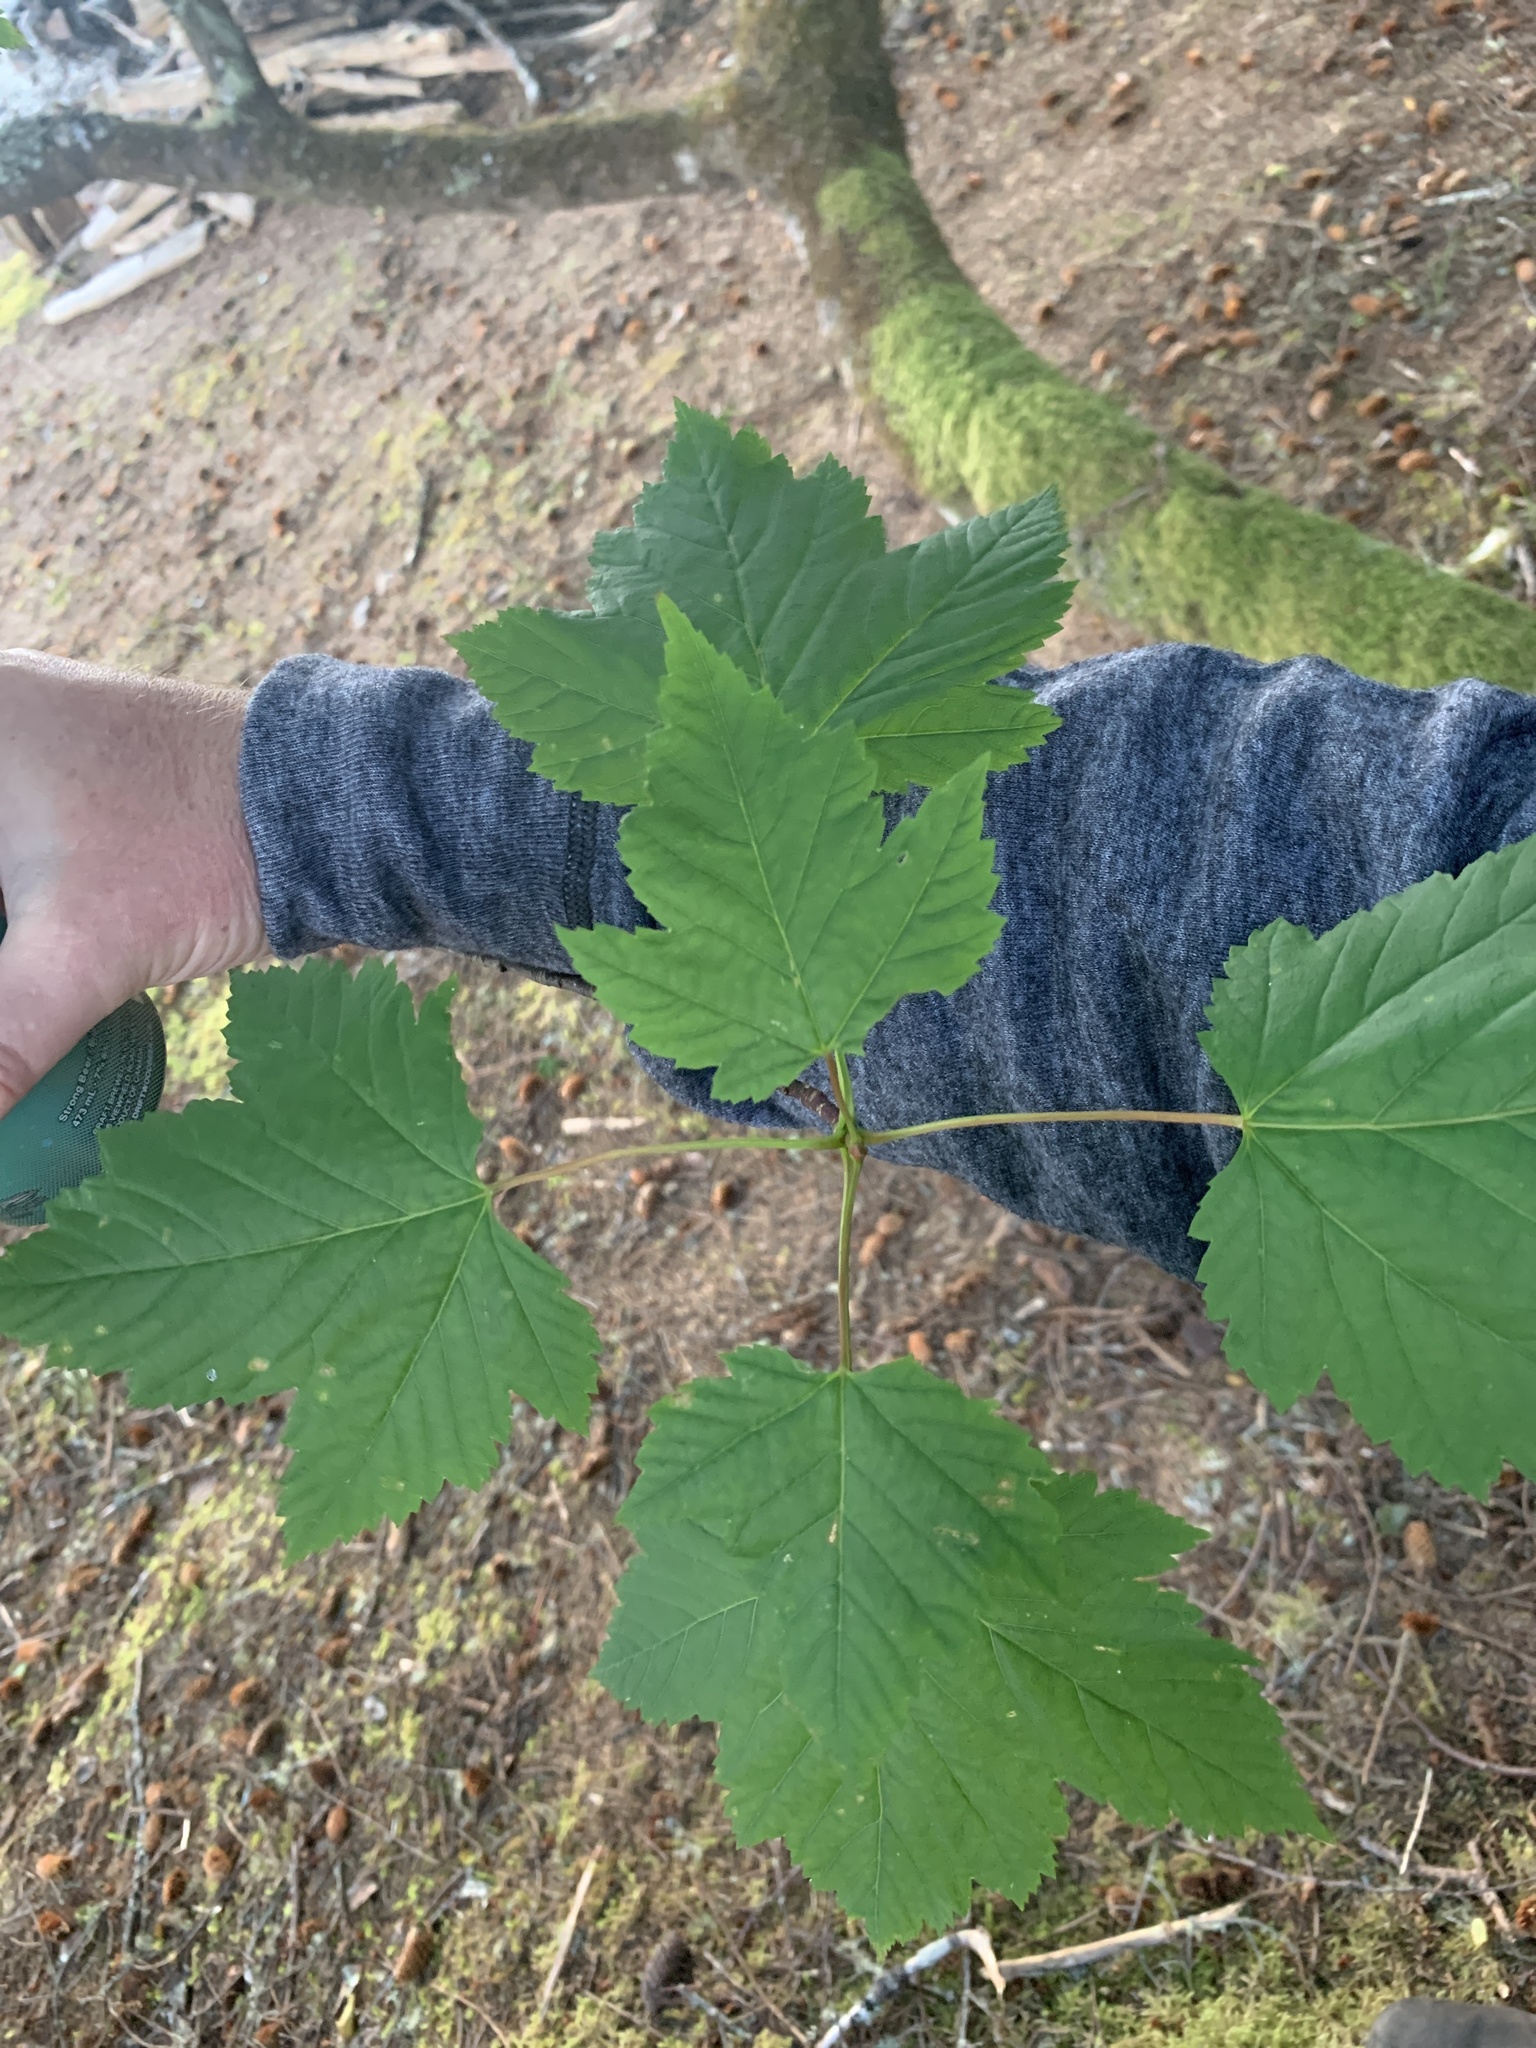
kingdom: Plantae
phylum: Tracheophyta
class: Magnoliopsida
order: Sapindales
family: Sapindaceae
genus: Acer
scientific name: Acer glabrum
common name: Rocky mountain maple
